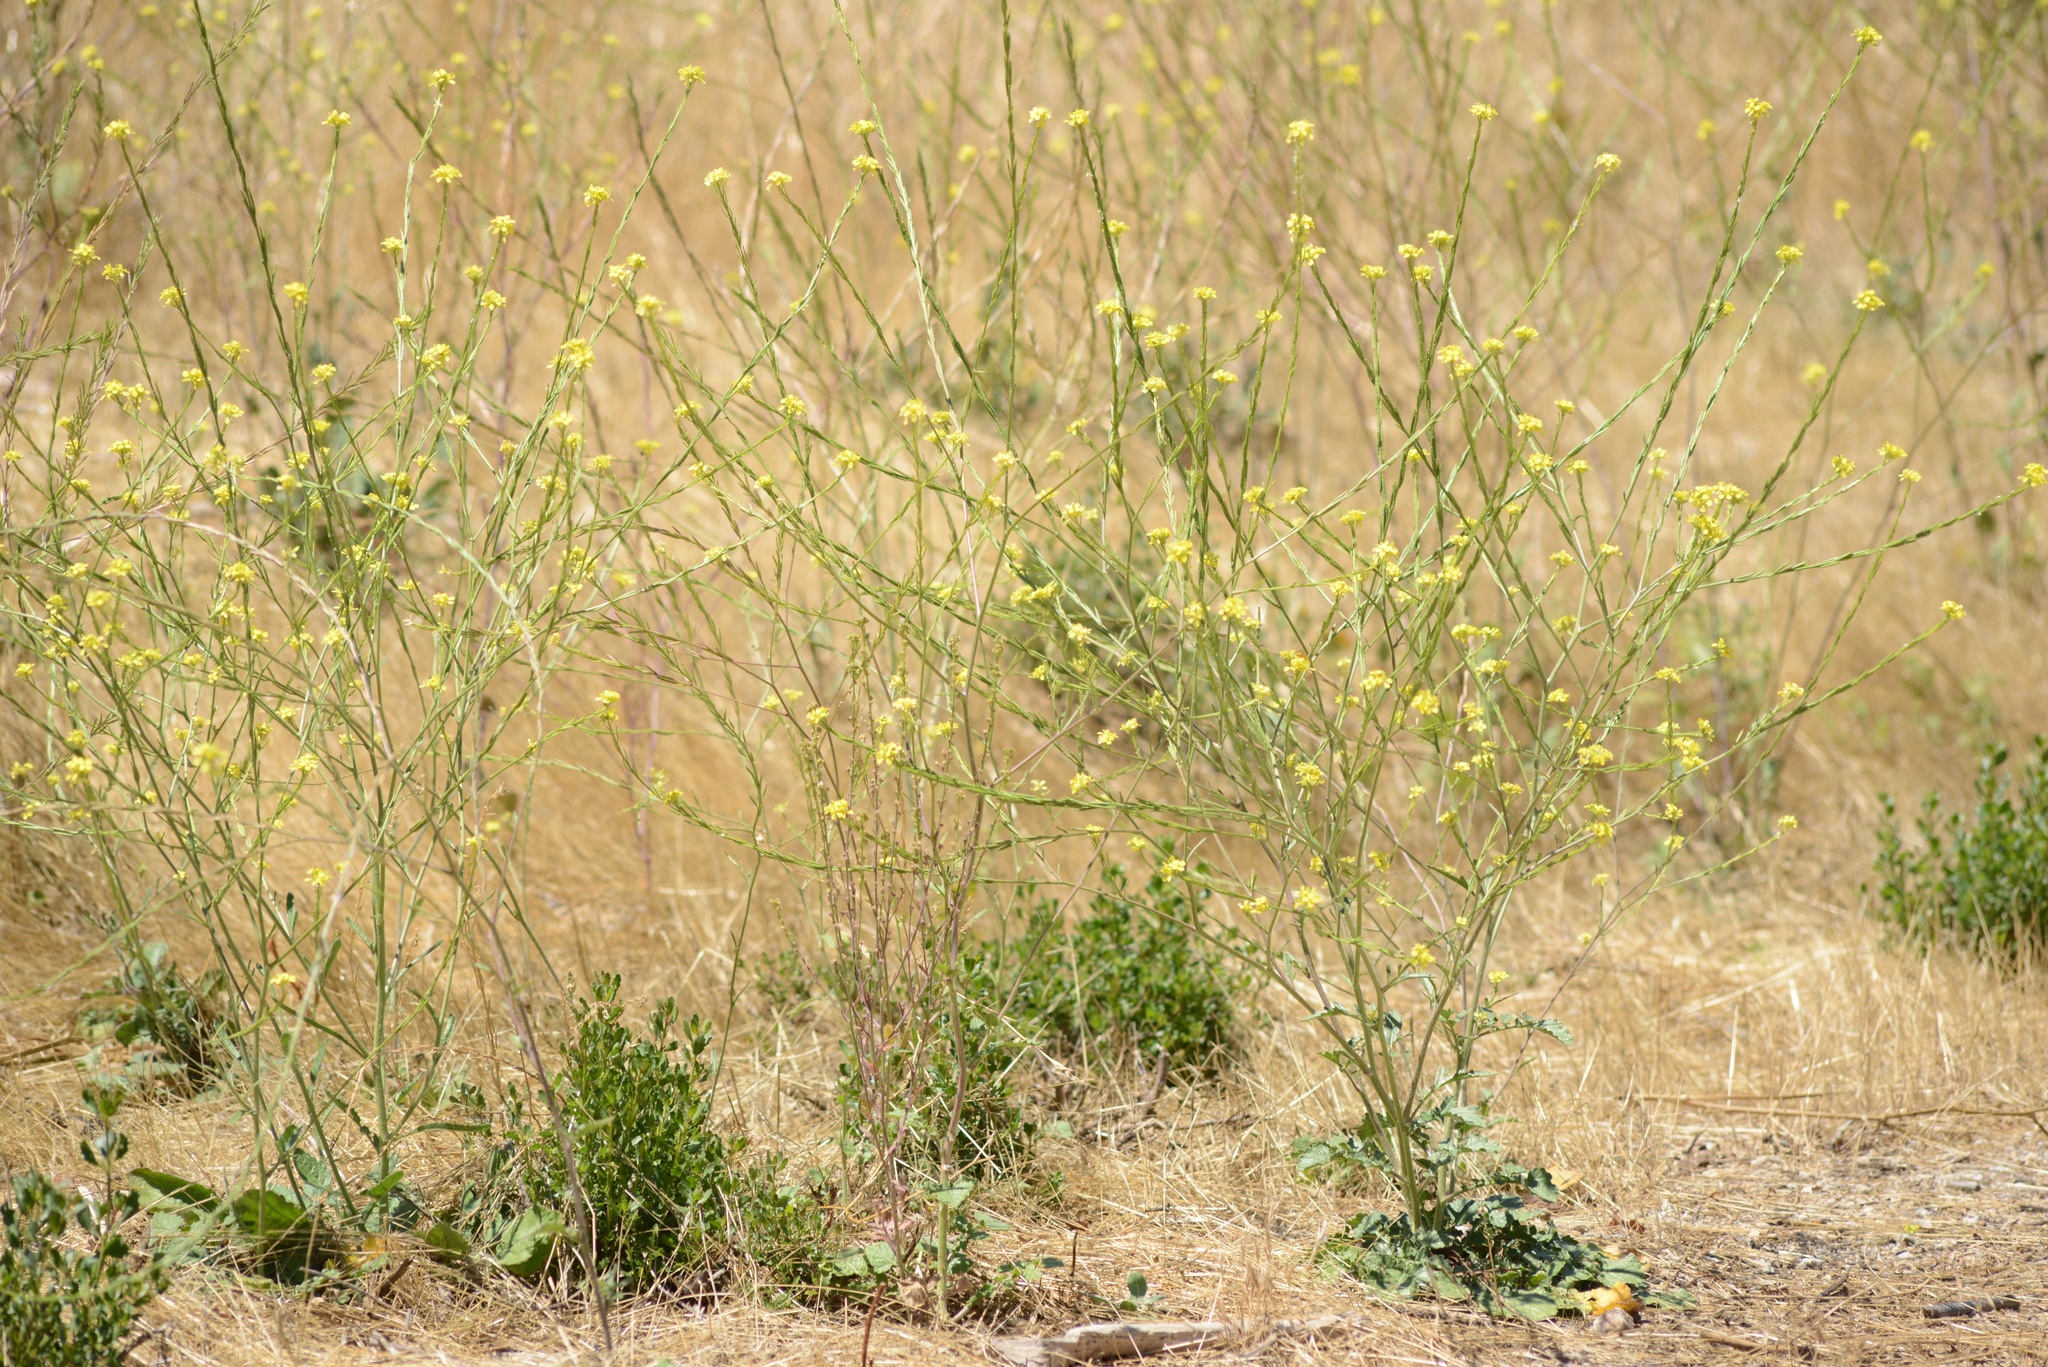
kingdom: Plantae
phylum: Tracheophyta
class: Magnoliopsida
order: Brassicales
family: Brassicaceae
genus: Hirschfeldia
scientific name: Hirschfeldia incana
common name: Hoary mustard
